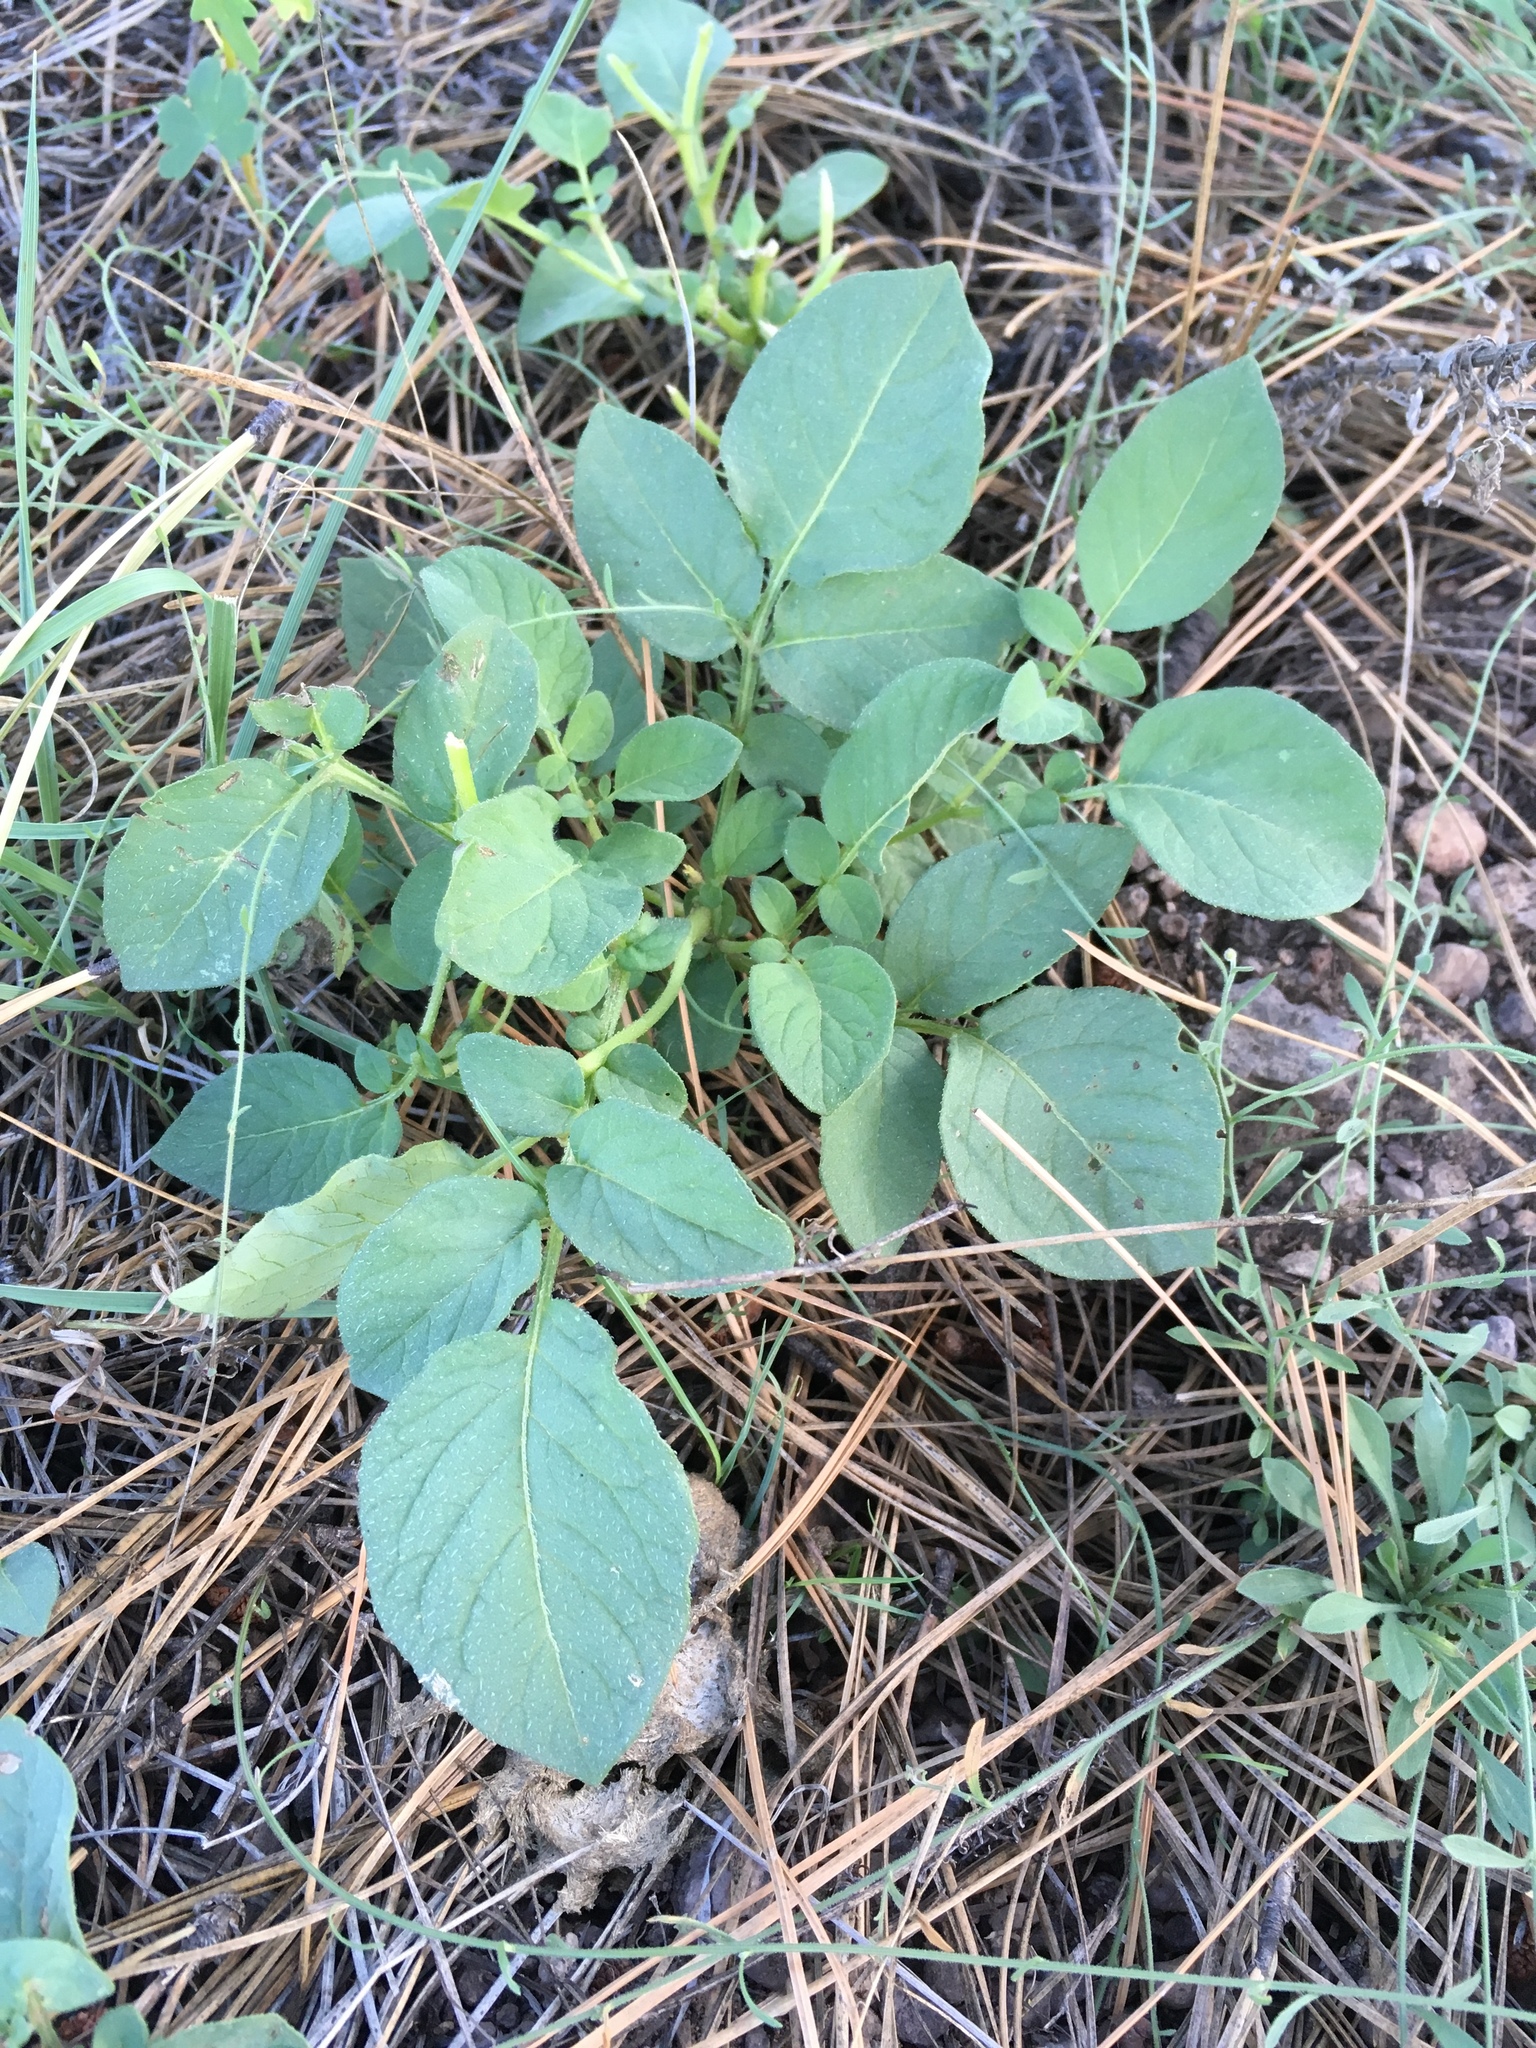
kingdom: Plantae
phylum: Tracheophyta
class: Magnoliopsida
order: Solanales
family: Solanaceae
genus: Solanum
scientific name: Solanum stoloniferum
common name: Fendler's nighshade
